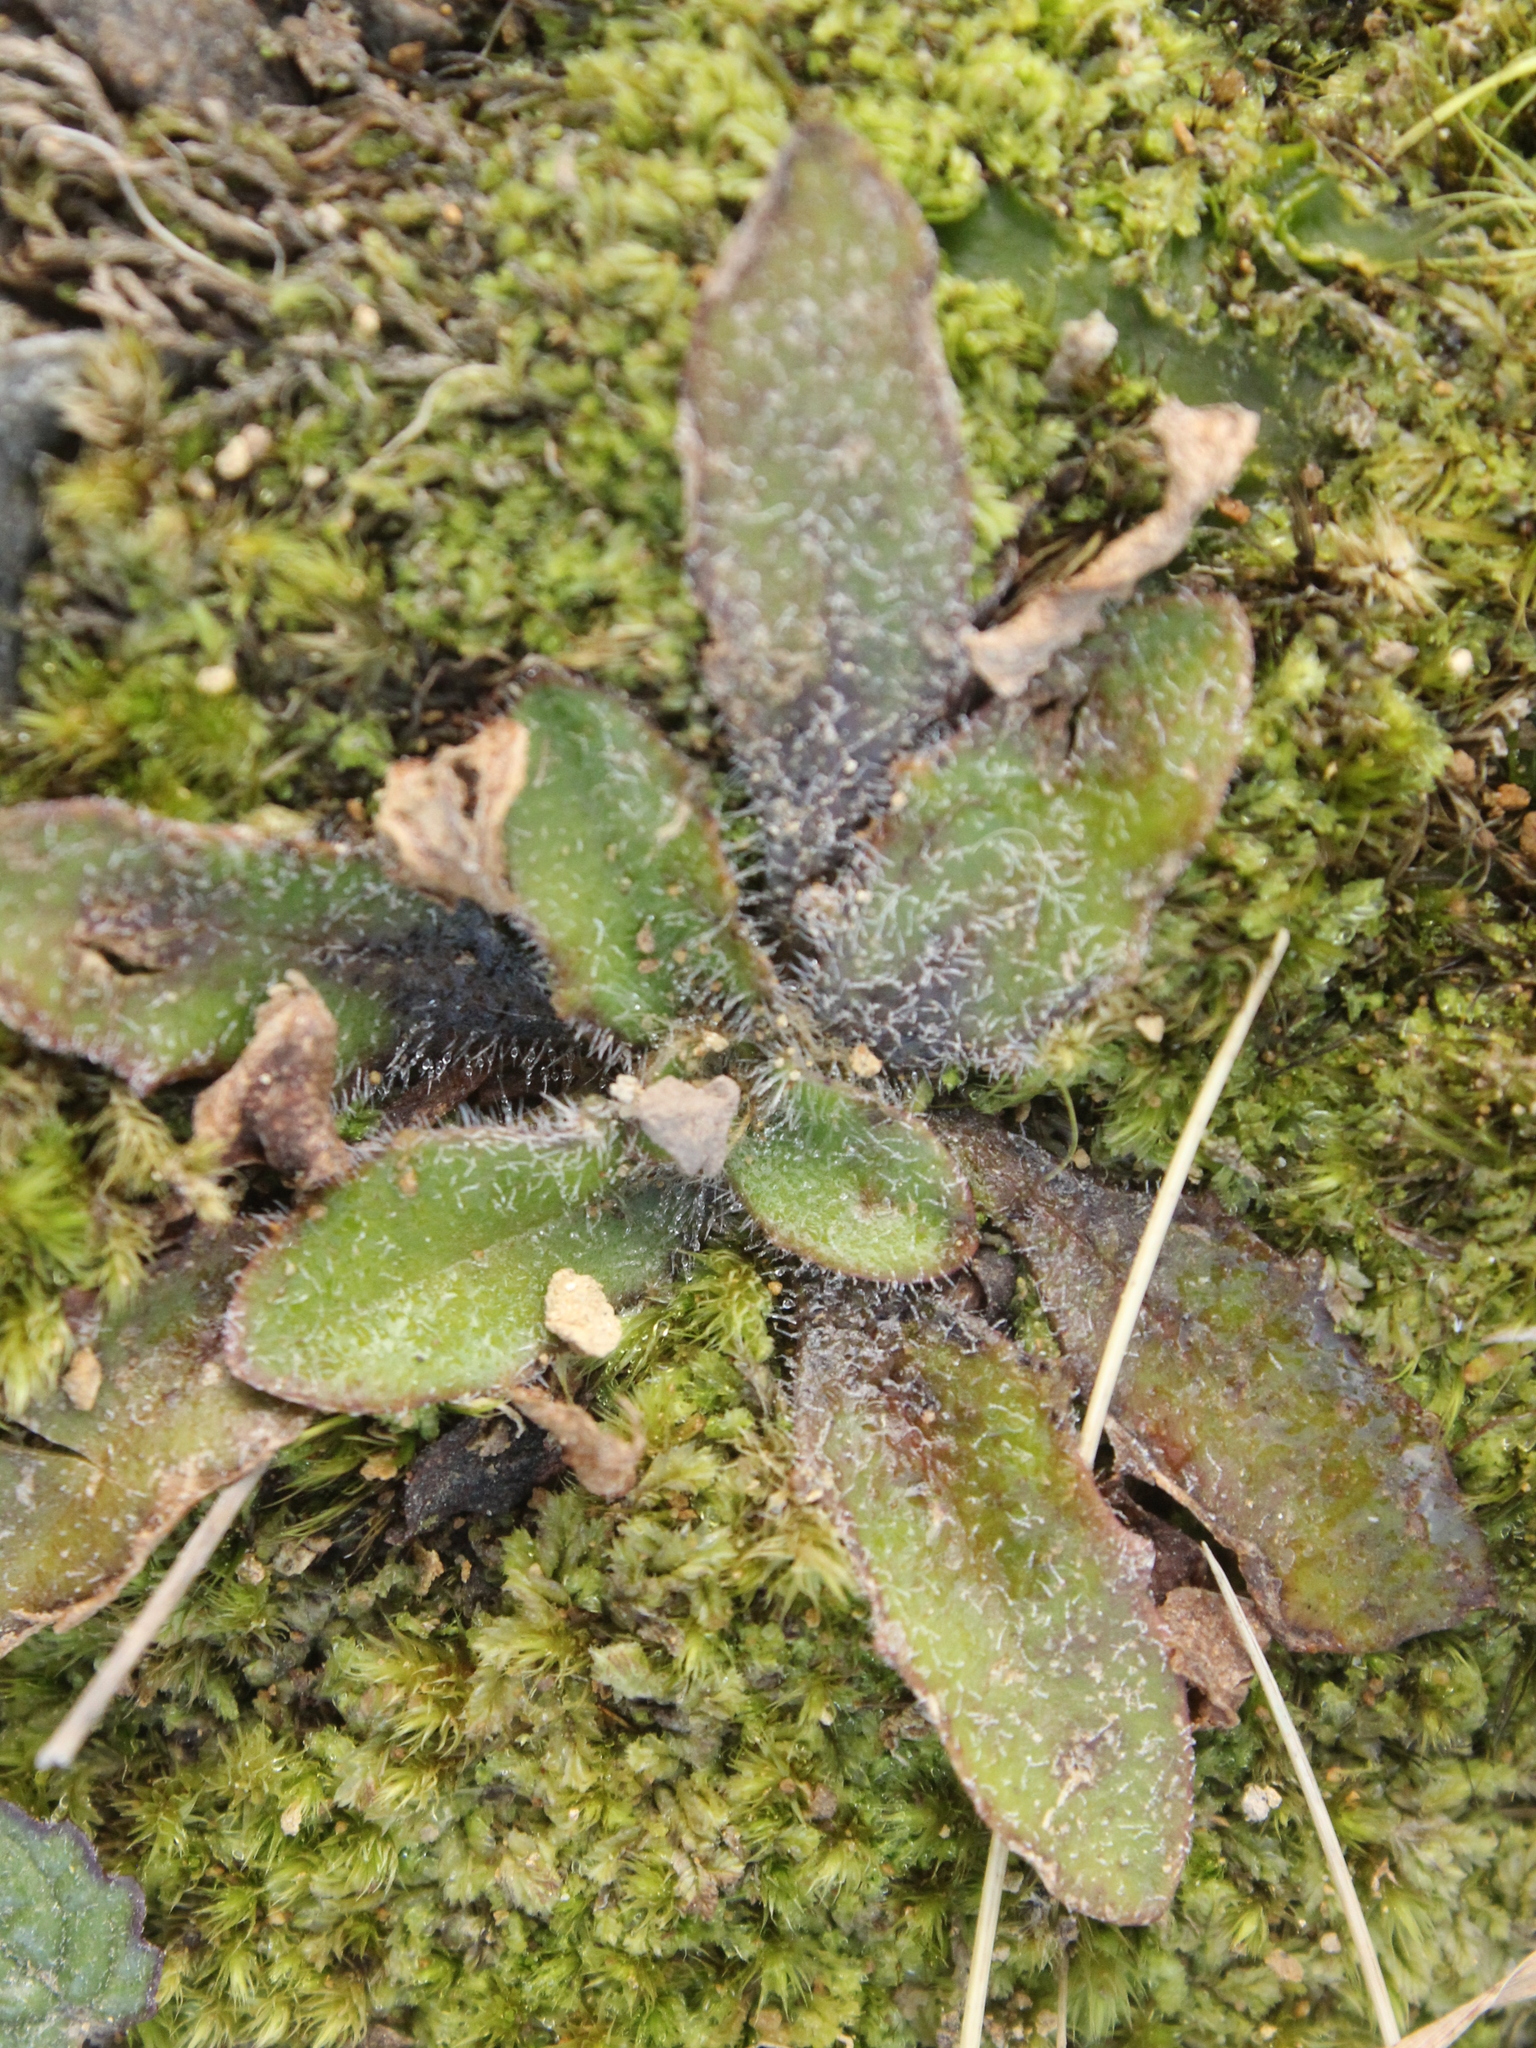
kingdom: Plantae
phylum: Tracheophyta
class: Magnoliopsida
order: Lamiales
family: Plantaginaceae
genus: Plantago
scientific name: Plantago raoulii
